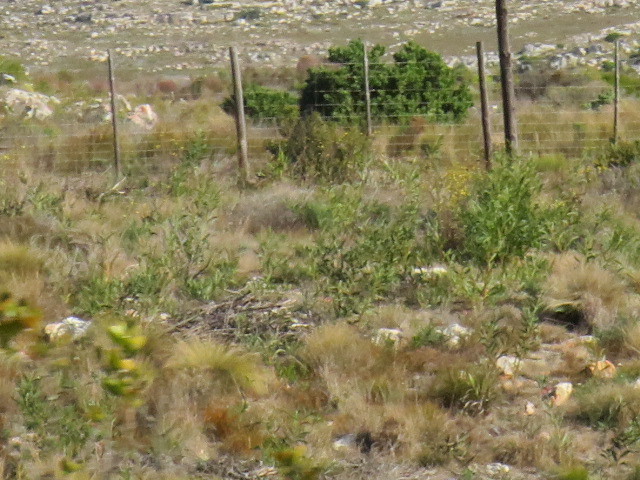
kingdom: Plantae
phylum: Tracheophyta
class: Magnoliopsida
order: Fabales
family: Fabaceae
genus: Acacia
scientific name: Acacia saligna
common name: Orange wattle
